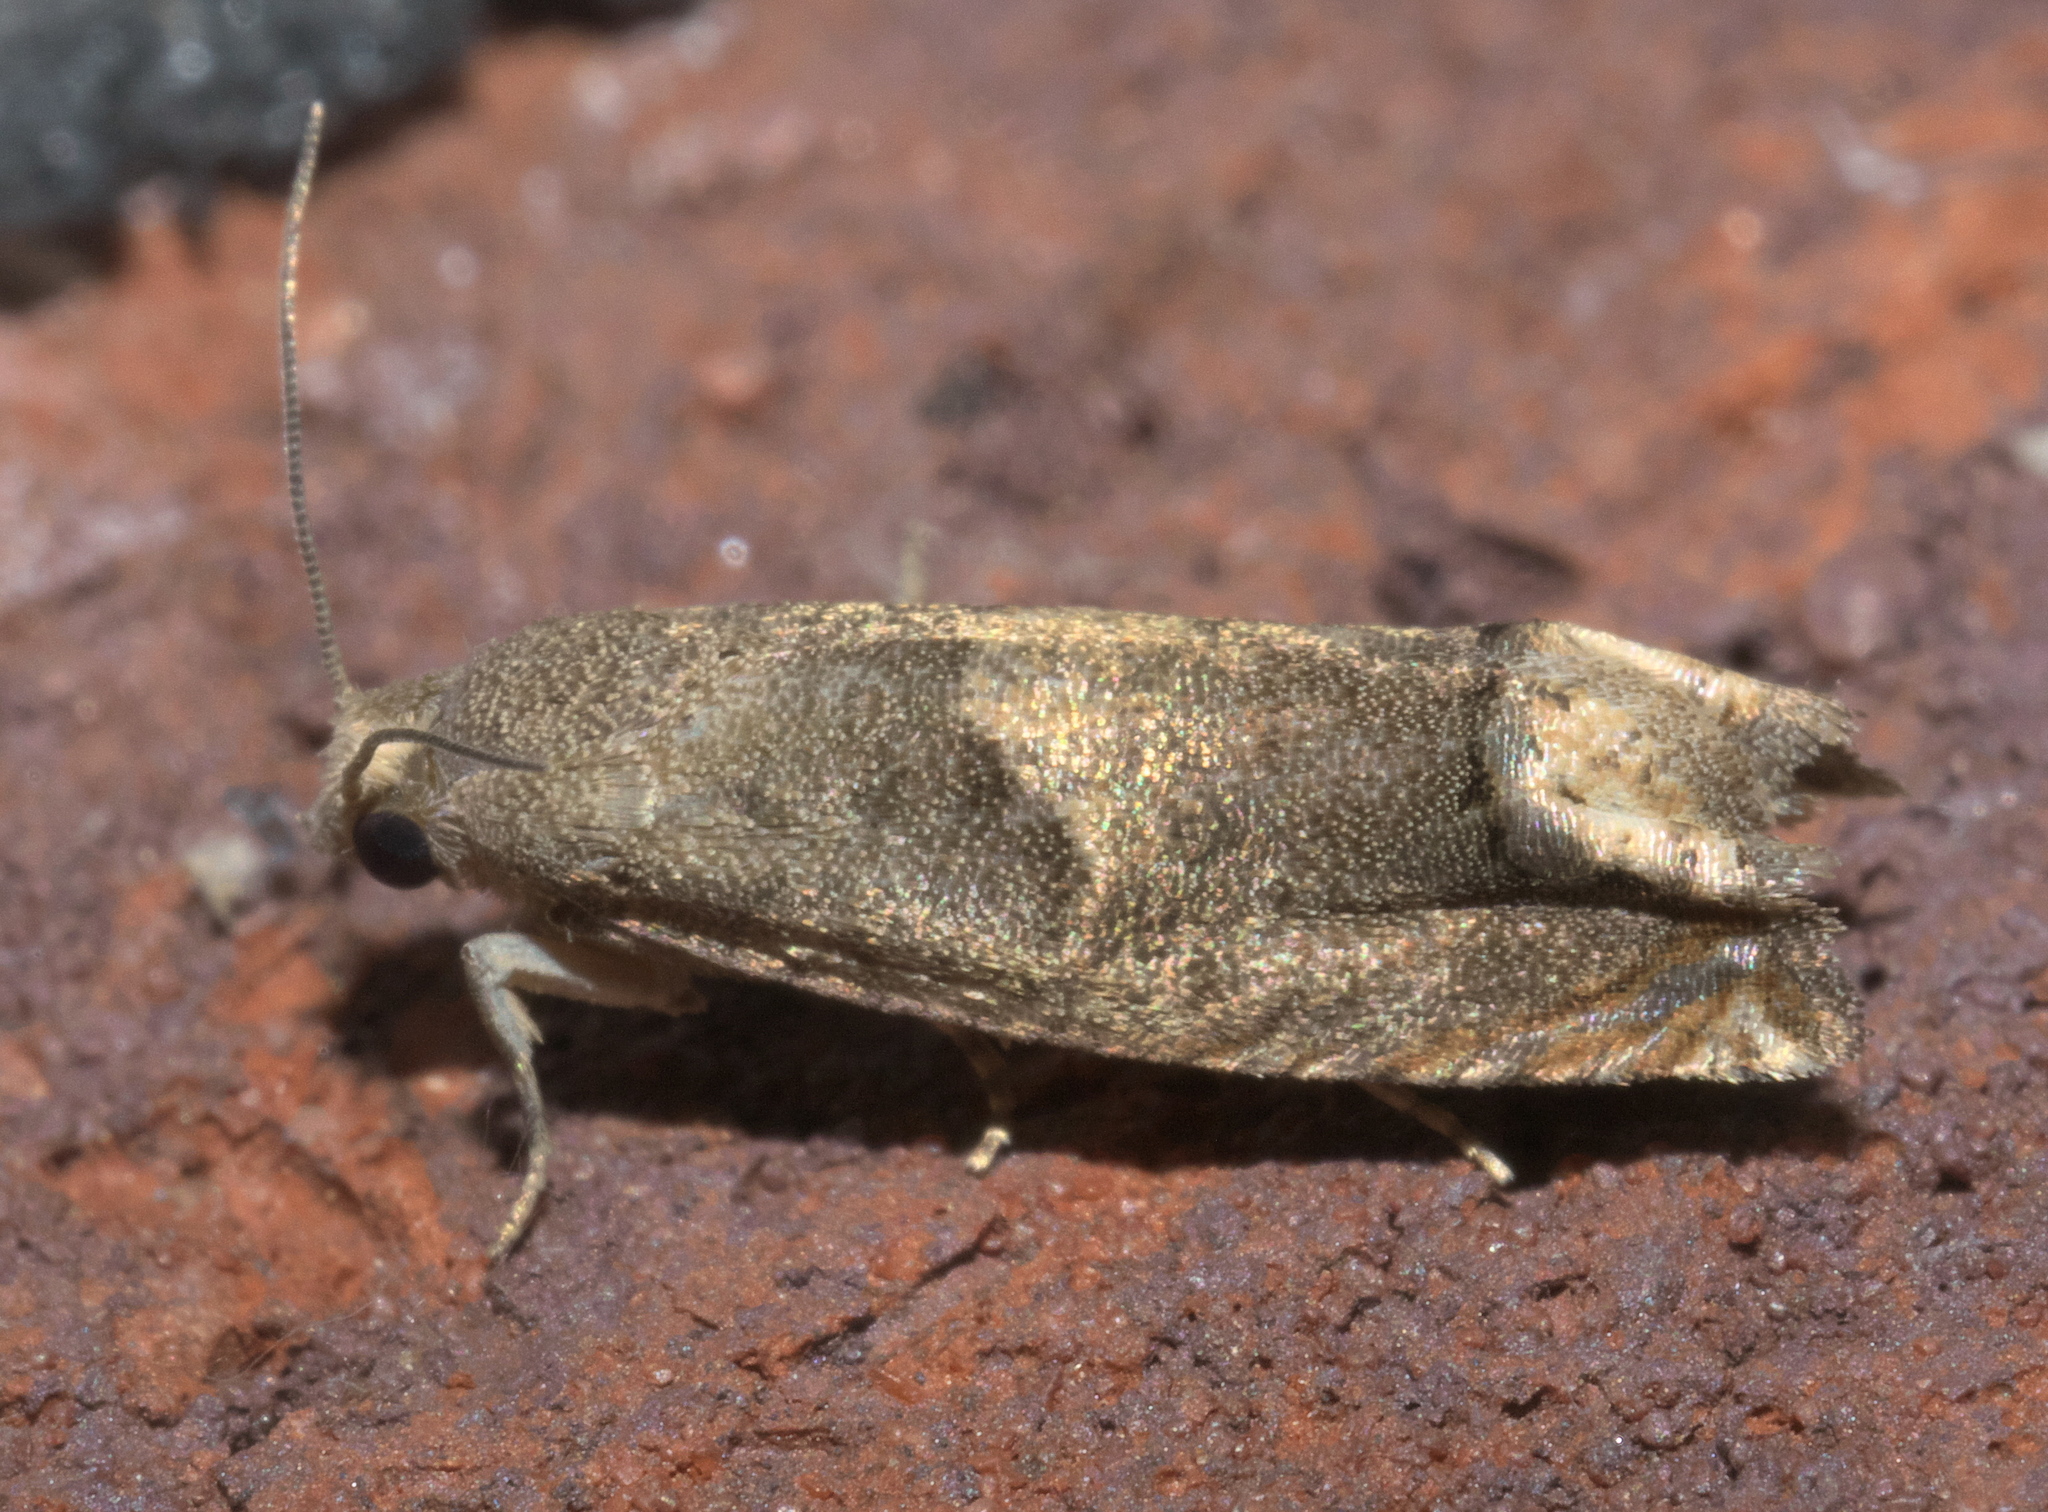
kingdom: Animalia
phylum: Arthropoda
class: Insecta
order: Lepidoptera
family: Tortricidae
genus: Epiblema
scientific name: Epiblema strenuana
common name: Ragweed borer moth
